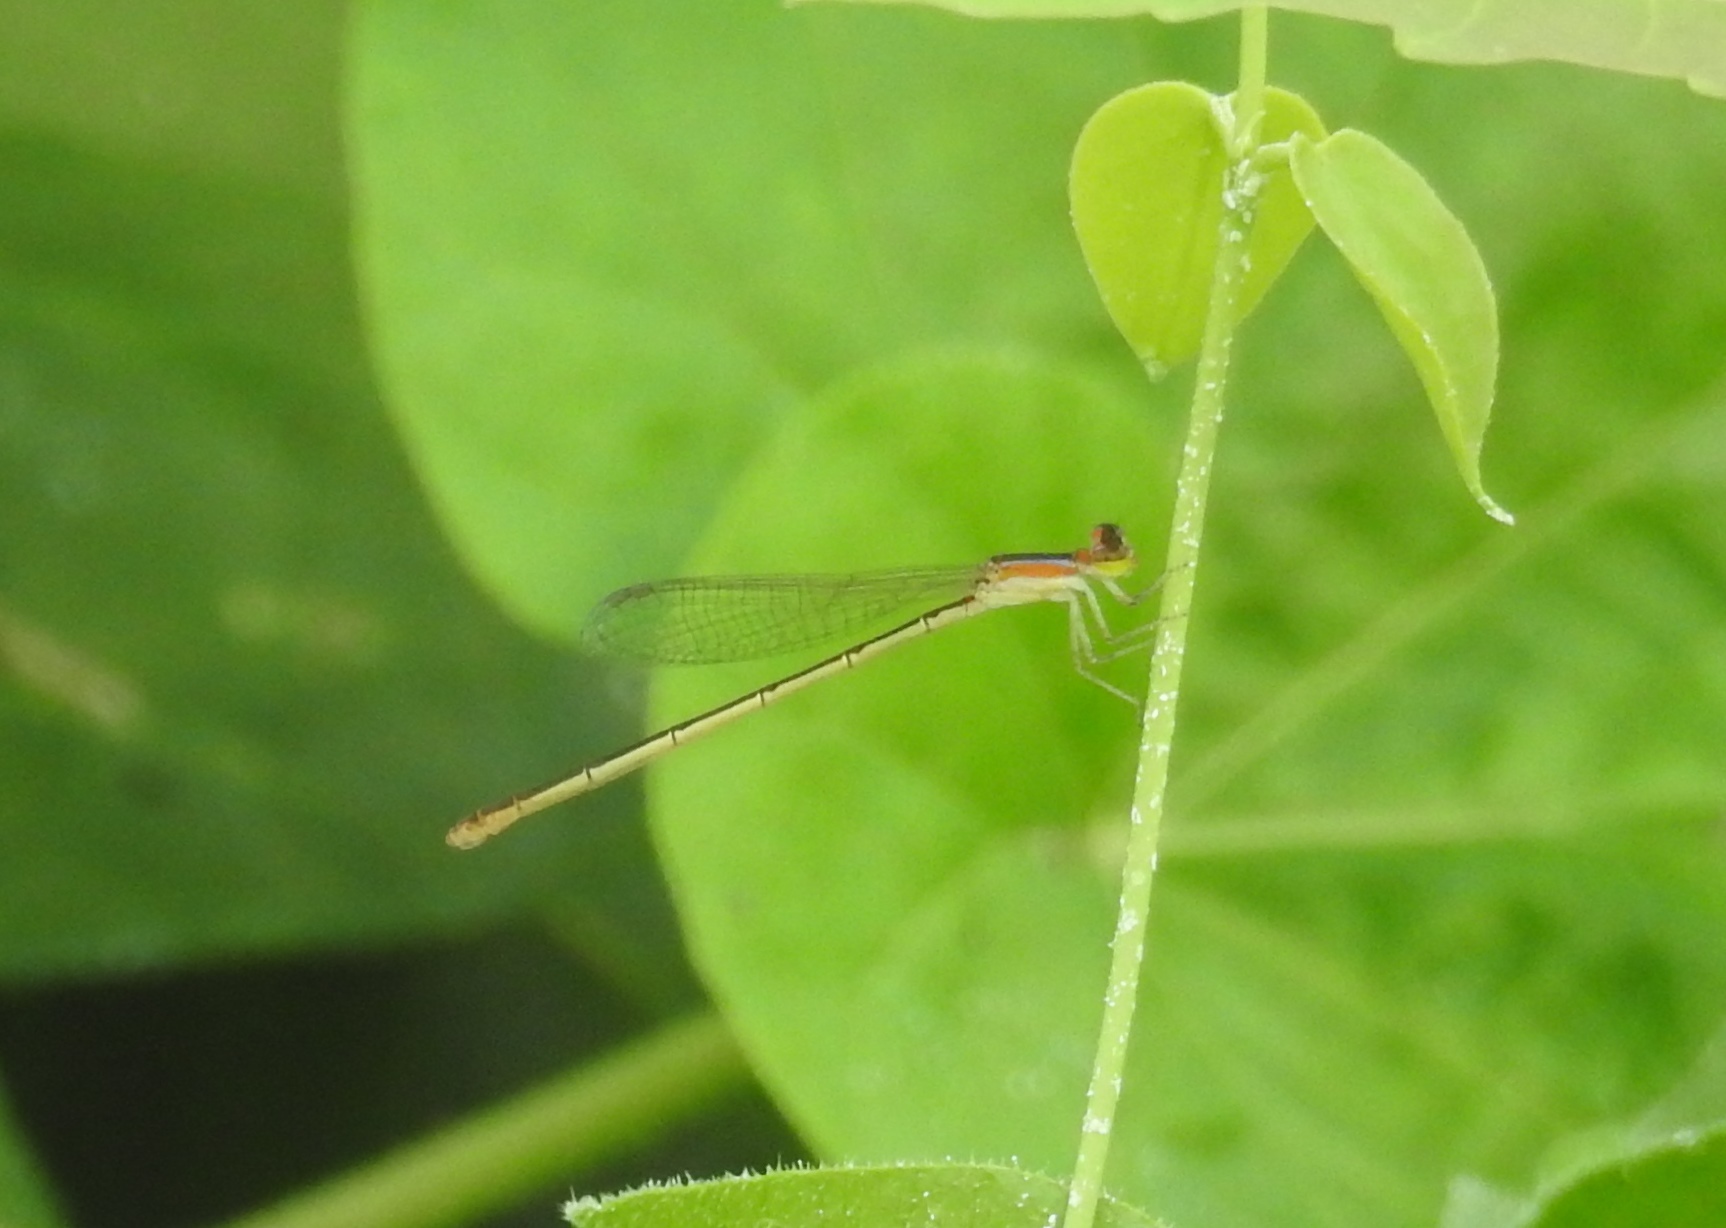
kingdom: Animalia
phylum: Arthropoda
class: Insecta
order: Odonata
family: Coenagrionidae
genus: Agriocnemis
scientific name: Agriocnemis pygmaea
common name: Pygmy wisp
